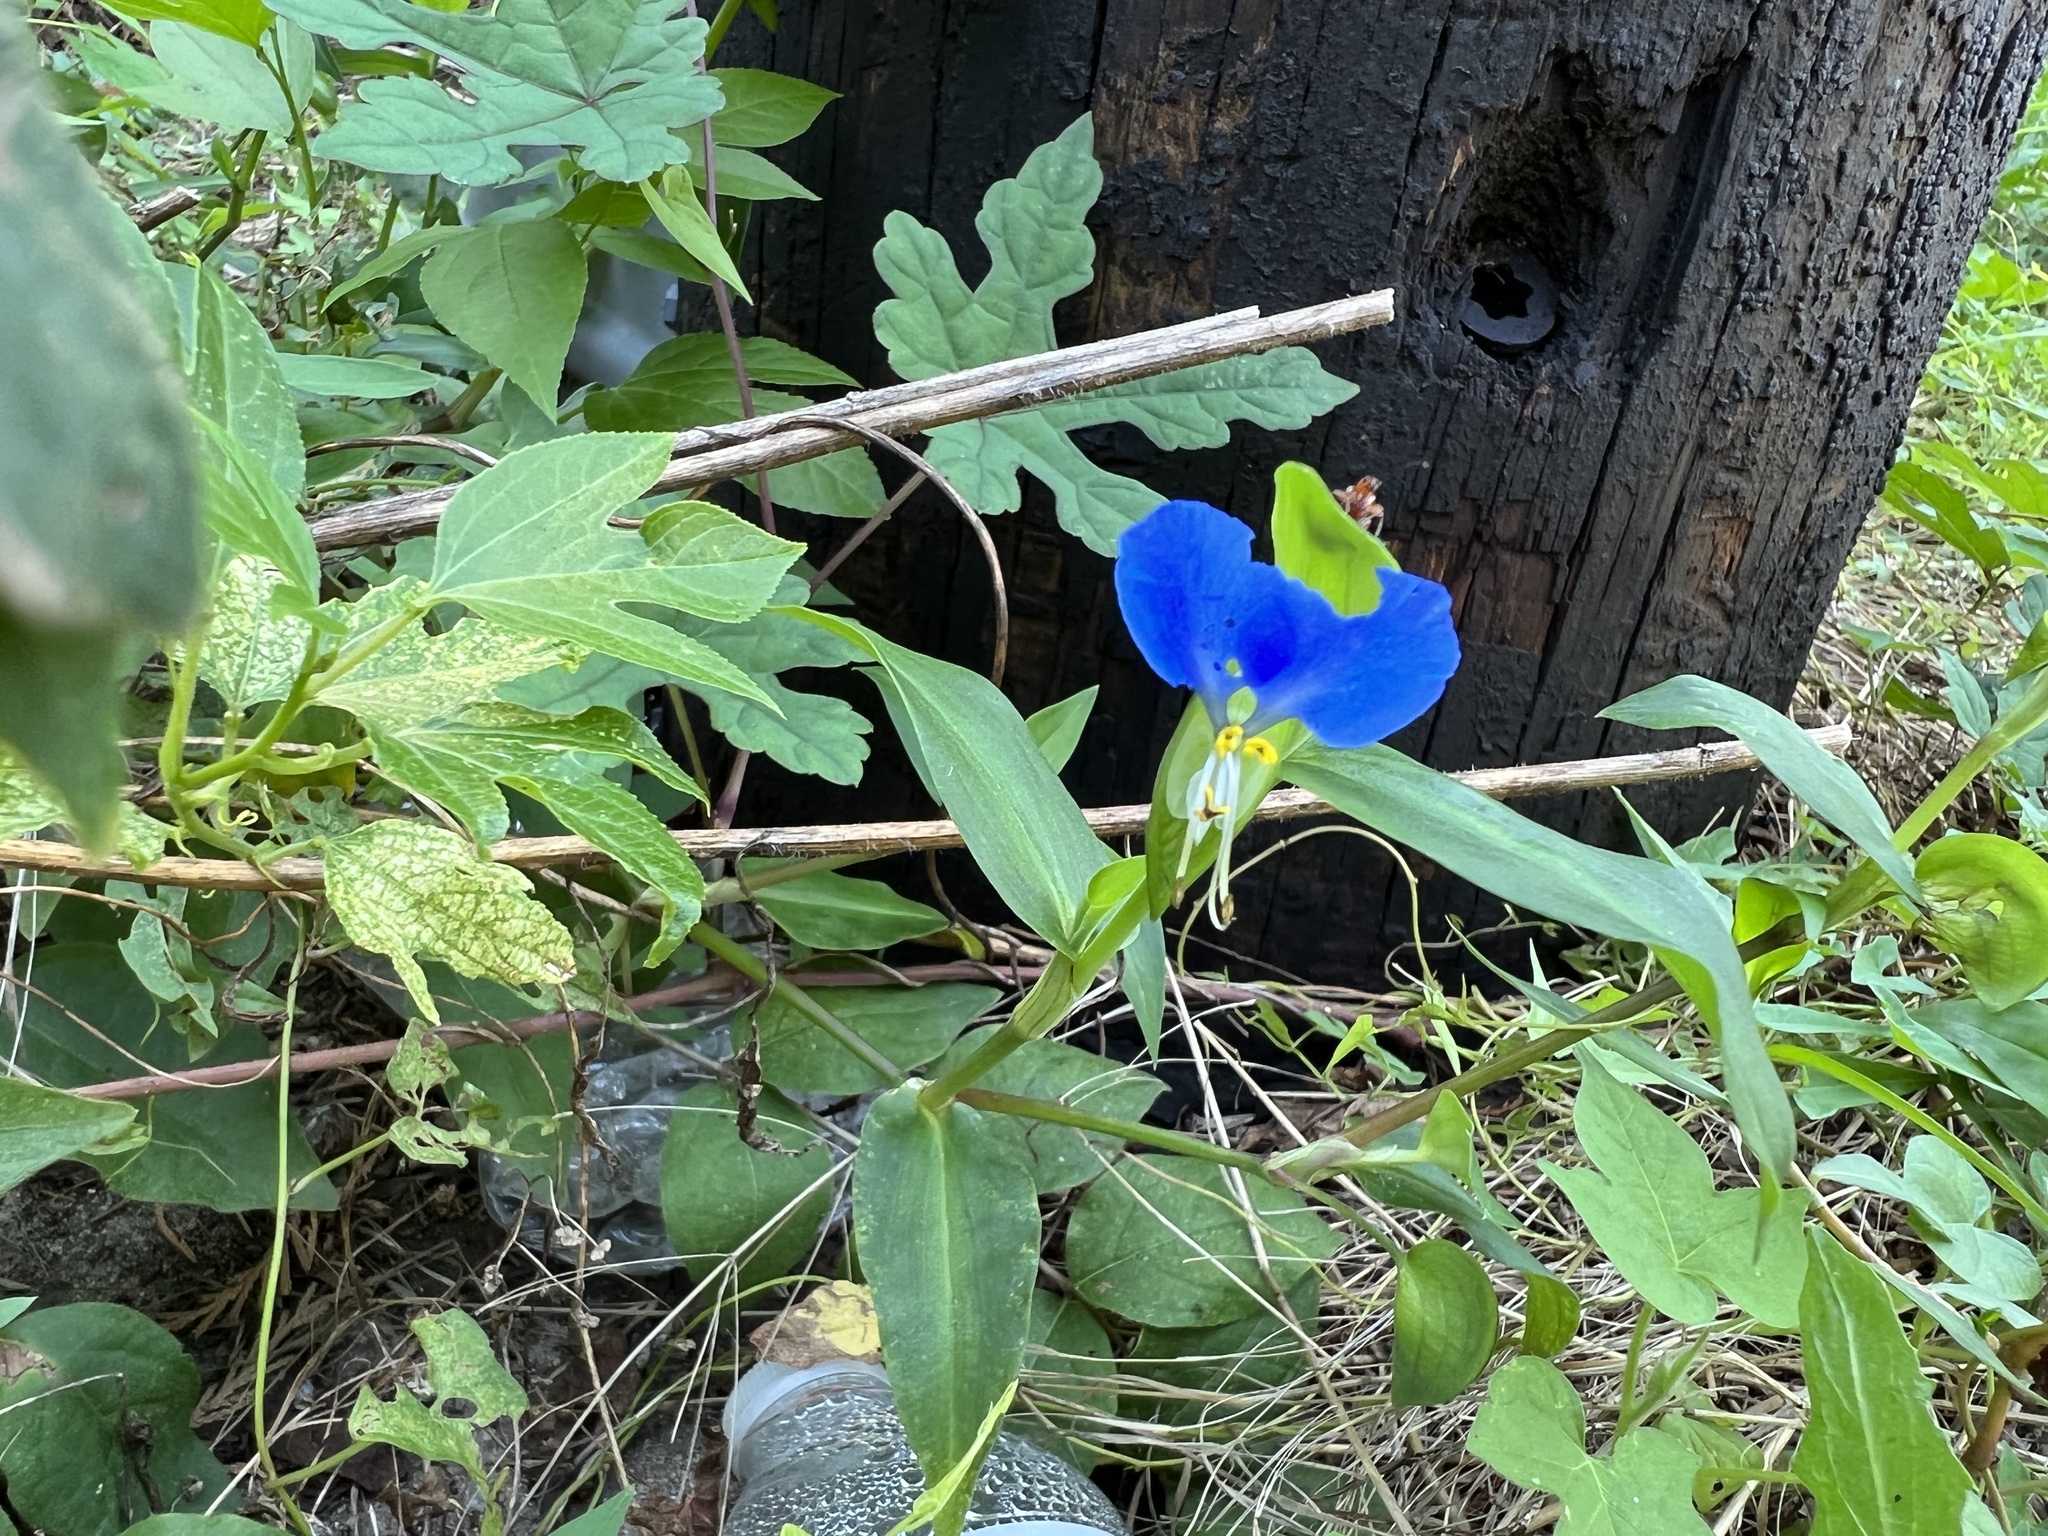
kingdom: Plantae
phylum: Tracheophyta
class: Liliopsida
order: Commelinales
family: Commelinaceae
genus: Commelina
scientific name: Commelina communis
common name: Asiatic dayflower
